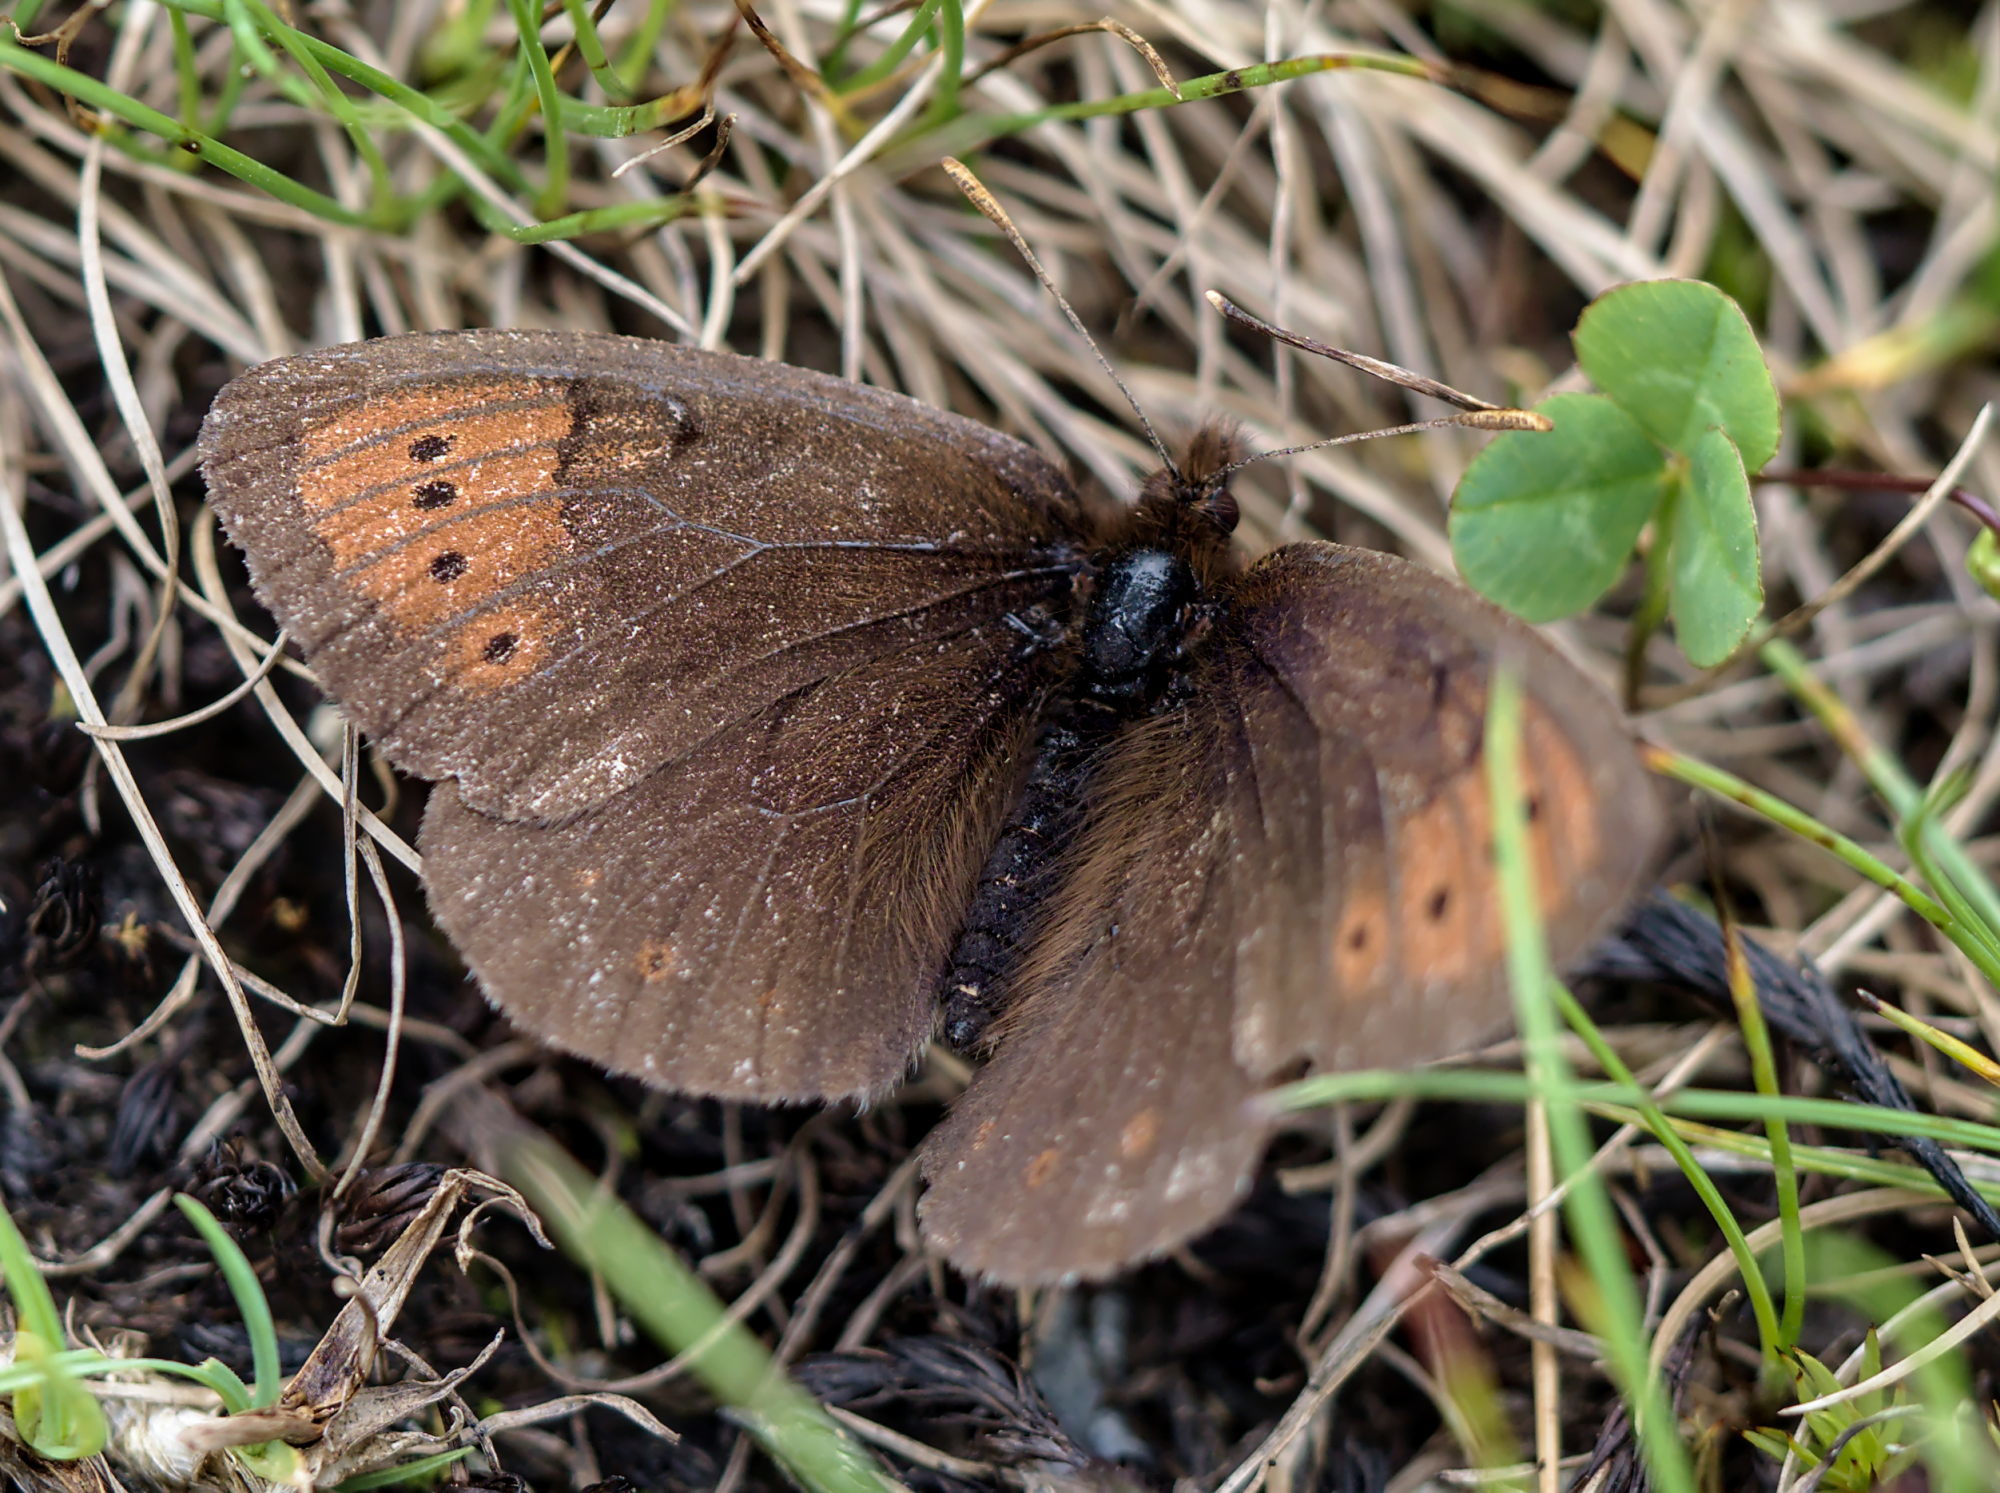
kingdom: Animalia
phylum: Arthropoda
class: Insecta
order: Lepidoptera
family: Nymphalidae
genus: Erebia
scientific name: Erebia pandrose
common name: Dewy ringlet
